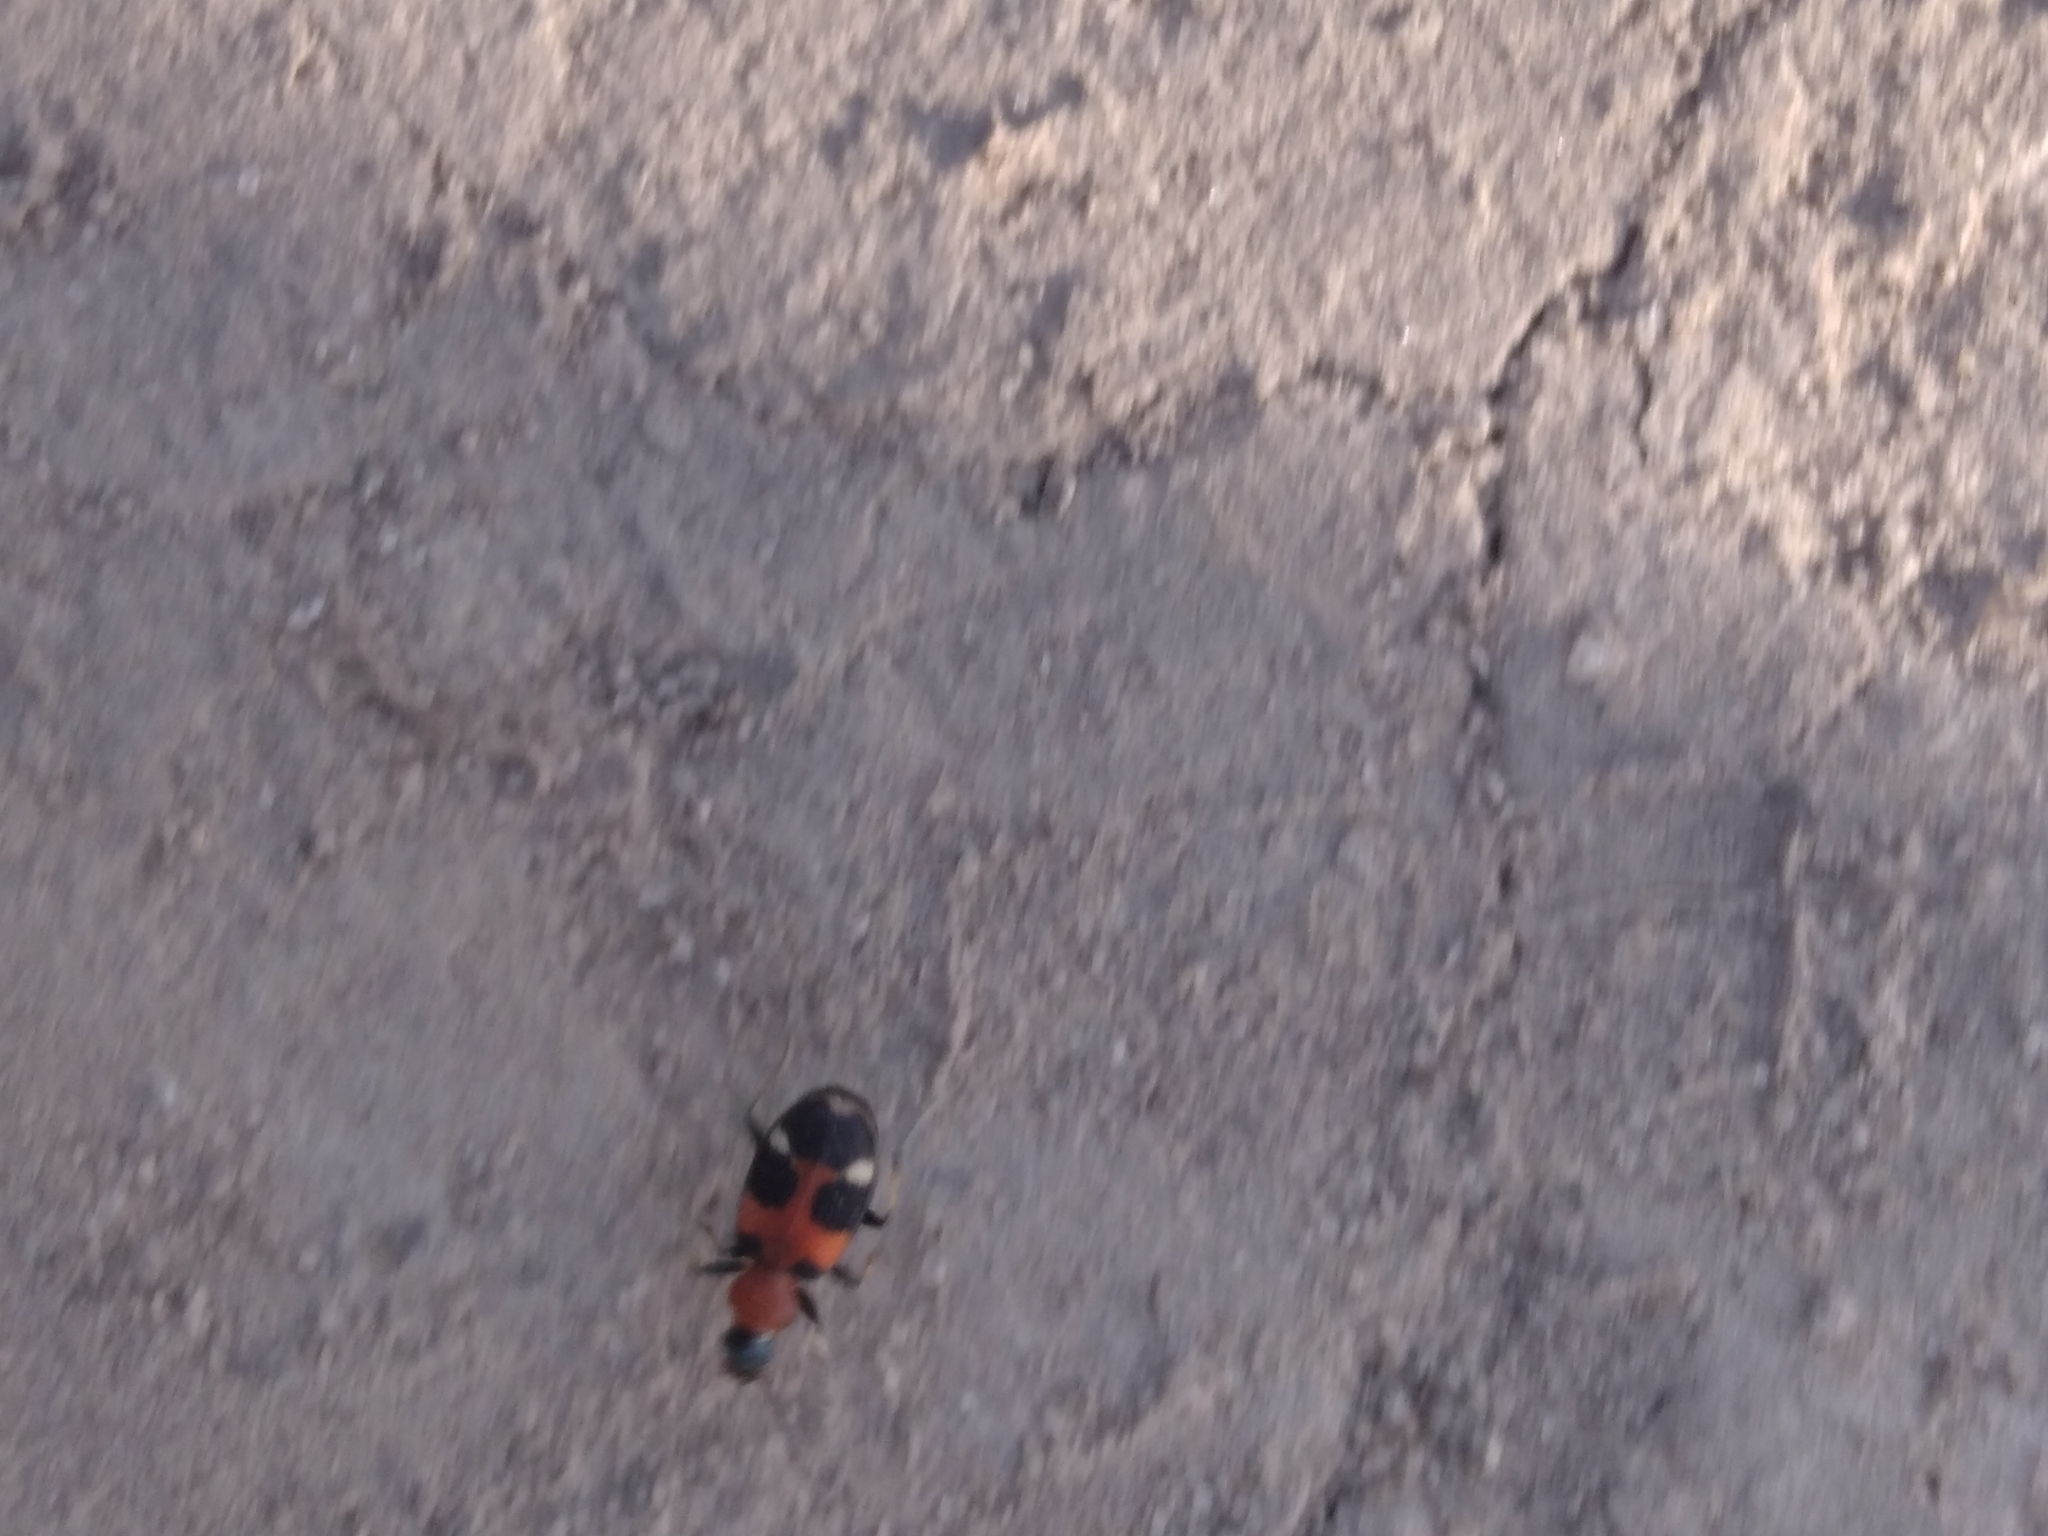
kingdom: Animalia
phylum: Arthropoda
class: Insecta
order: Coleoptera
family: Carabidae
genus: Callistus
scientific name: Callistus lunatus
